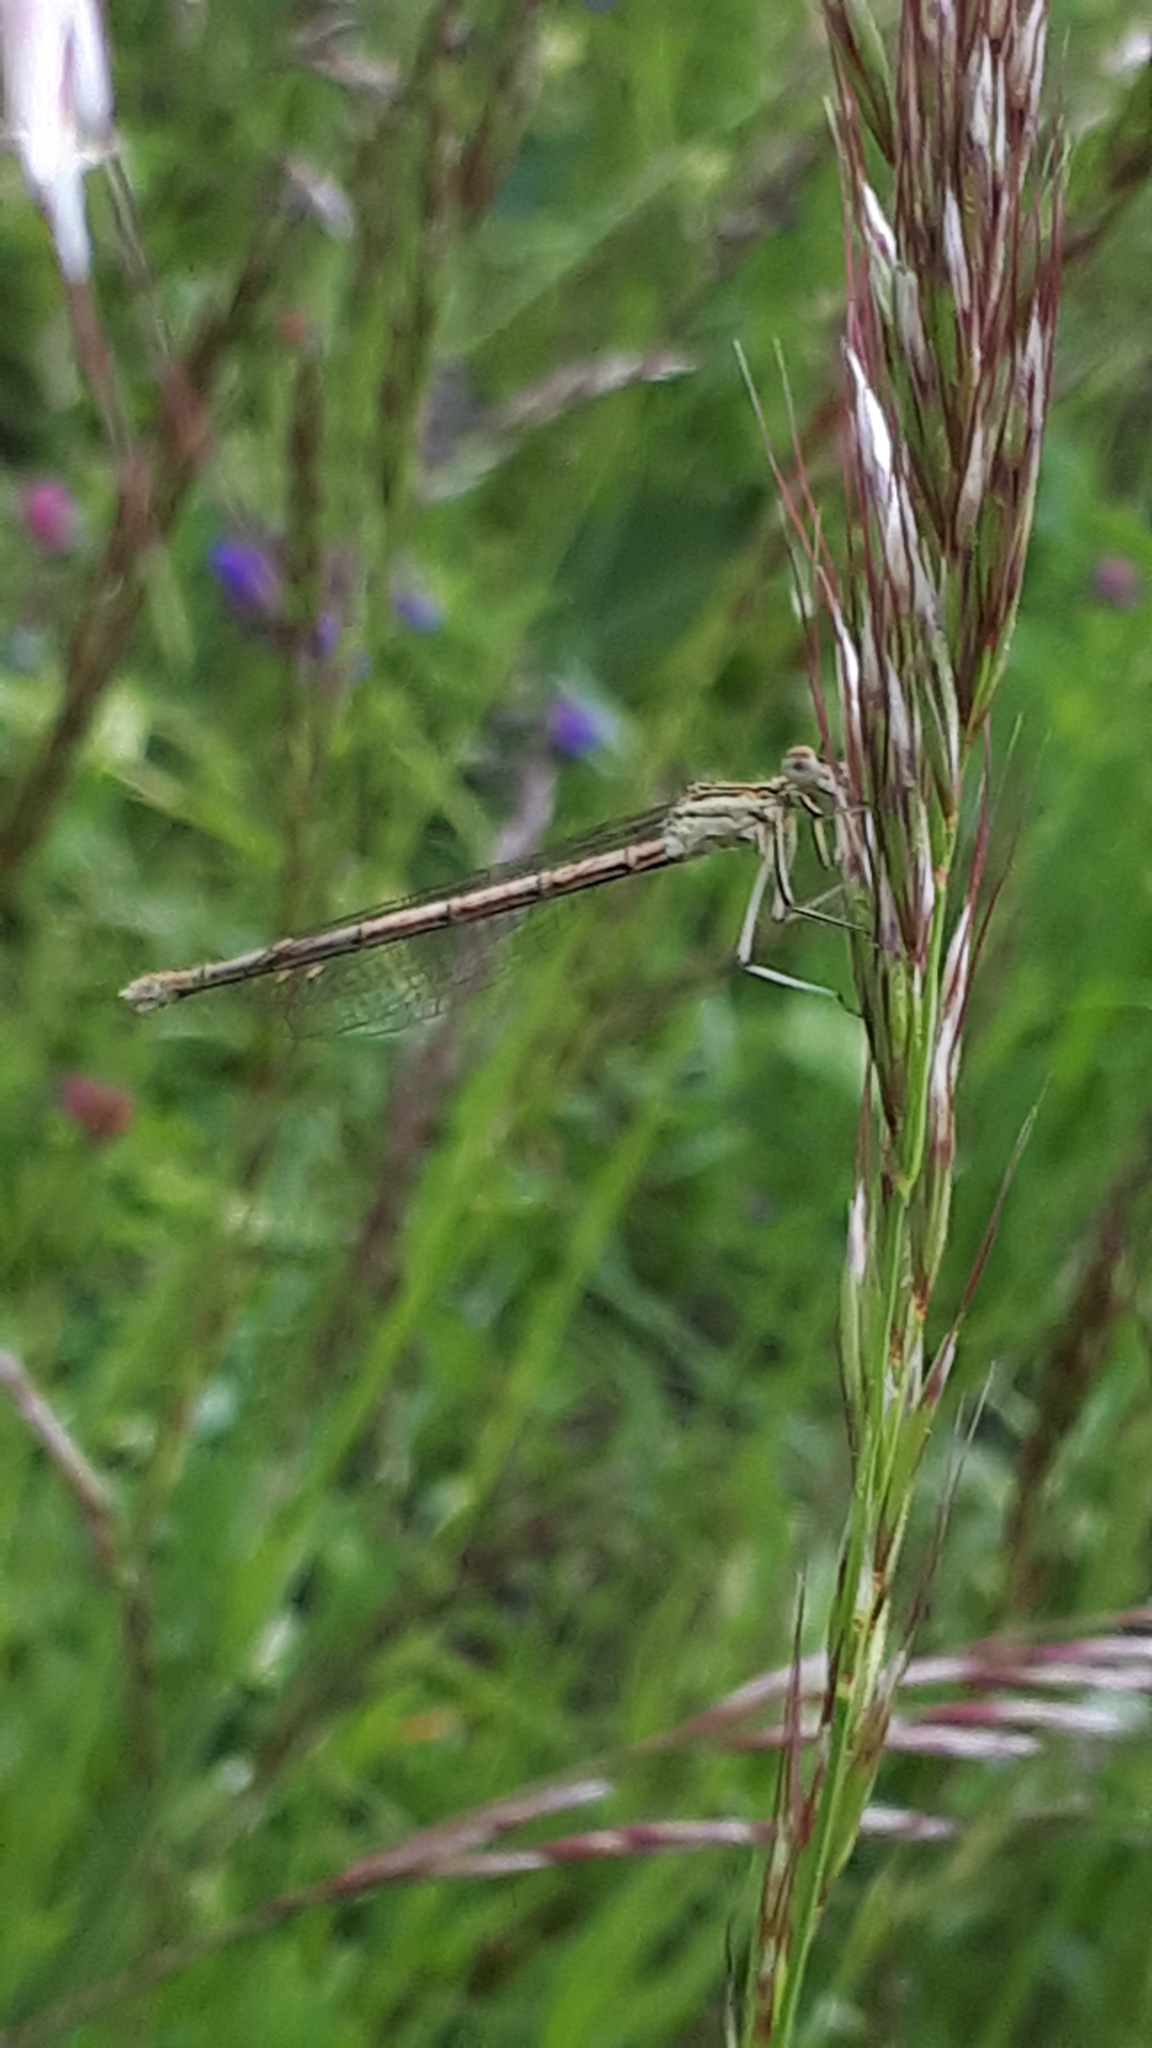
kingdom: Animalia
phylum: Arthropoda
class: Insecta
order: Odonata
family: Platycnemididae
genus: Platycnemis
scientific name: Platycnemis pennipes
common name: White-legged damselfly
